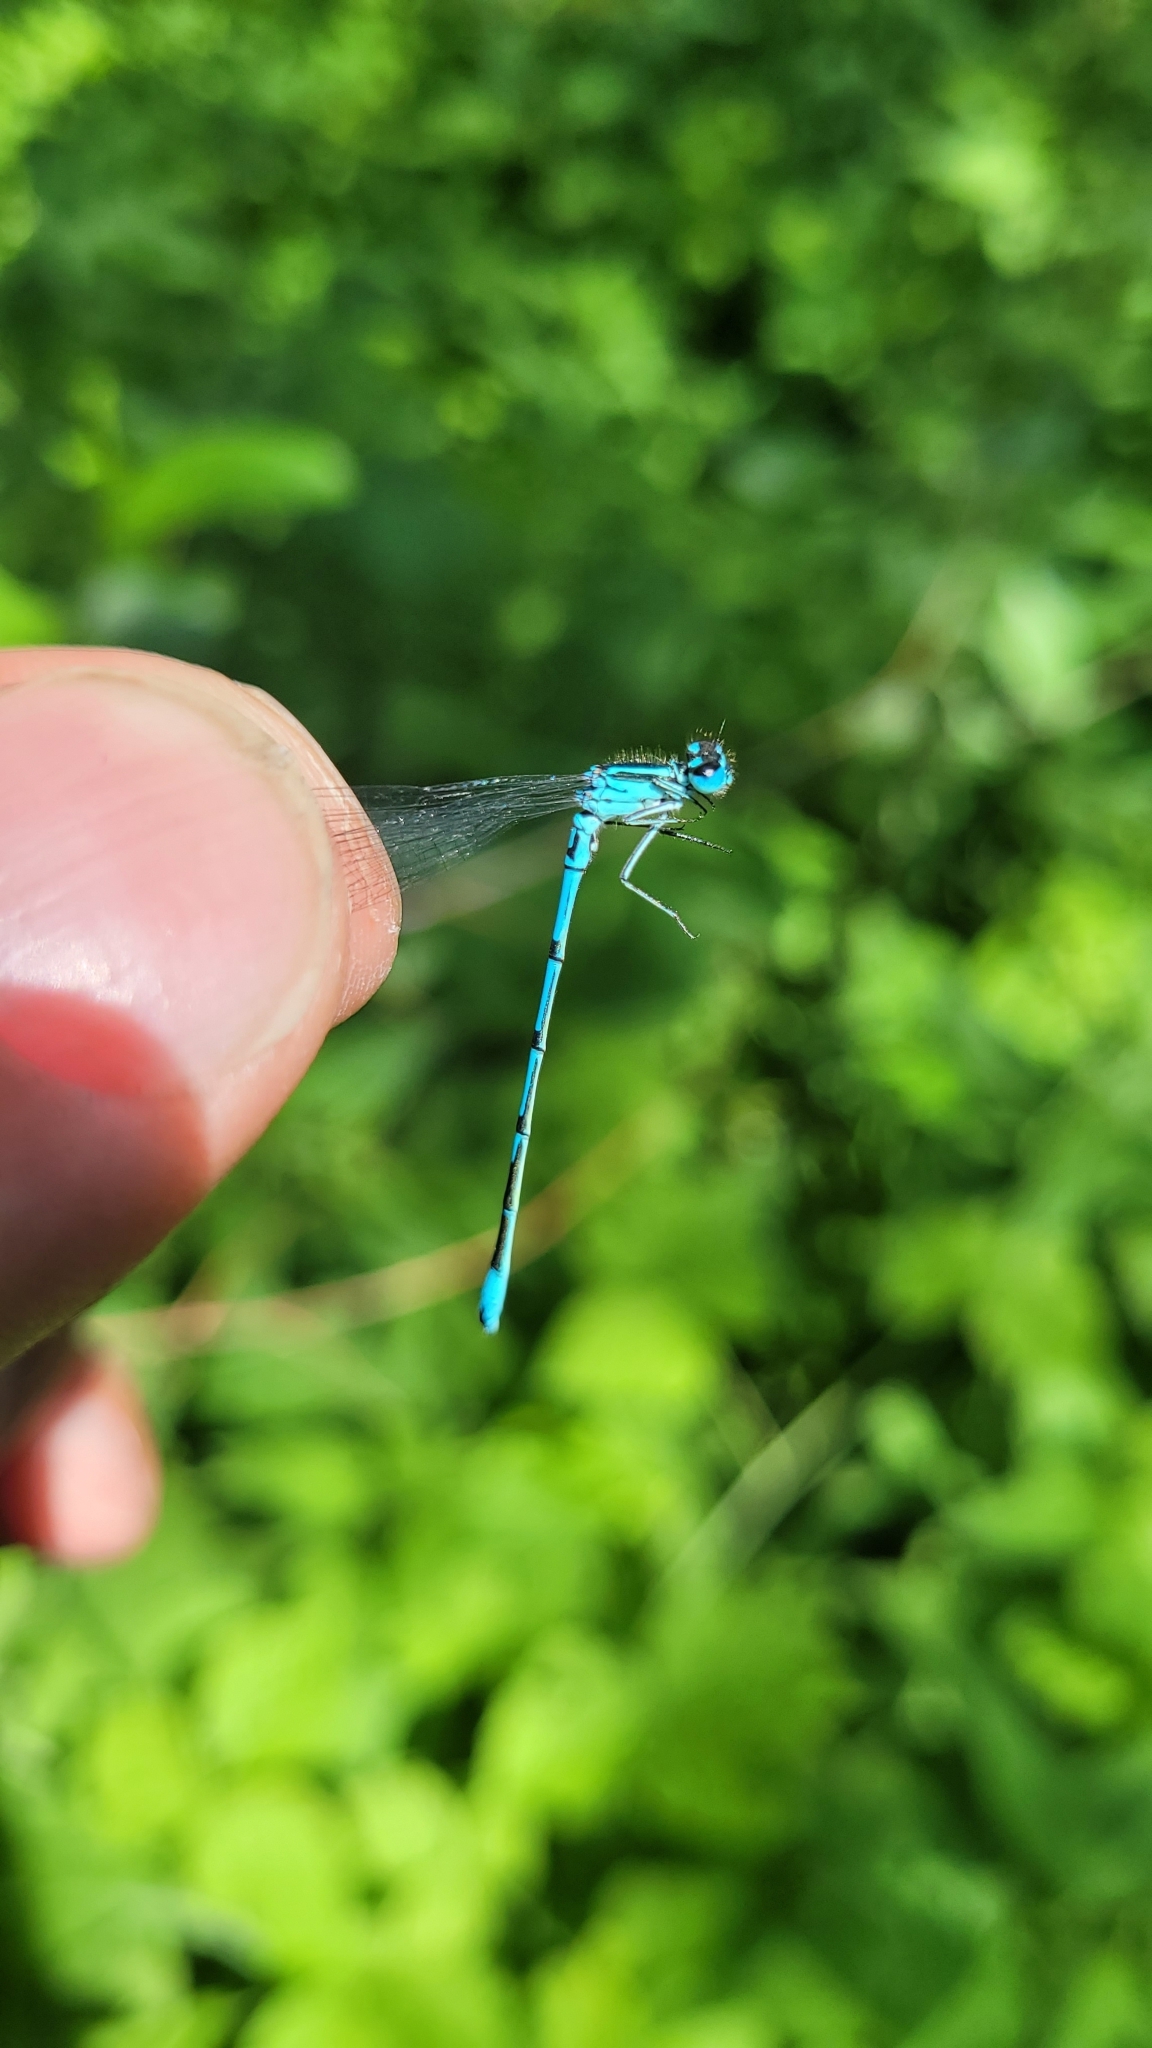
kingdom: Animalia
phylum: Arthropoda
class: Insecta
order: Odonata
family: Coenagrionidae
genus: Coenagrion
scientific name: Coenagrion puella
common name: Azure damselfly
